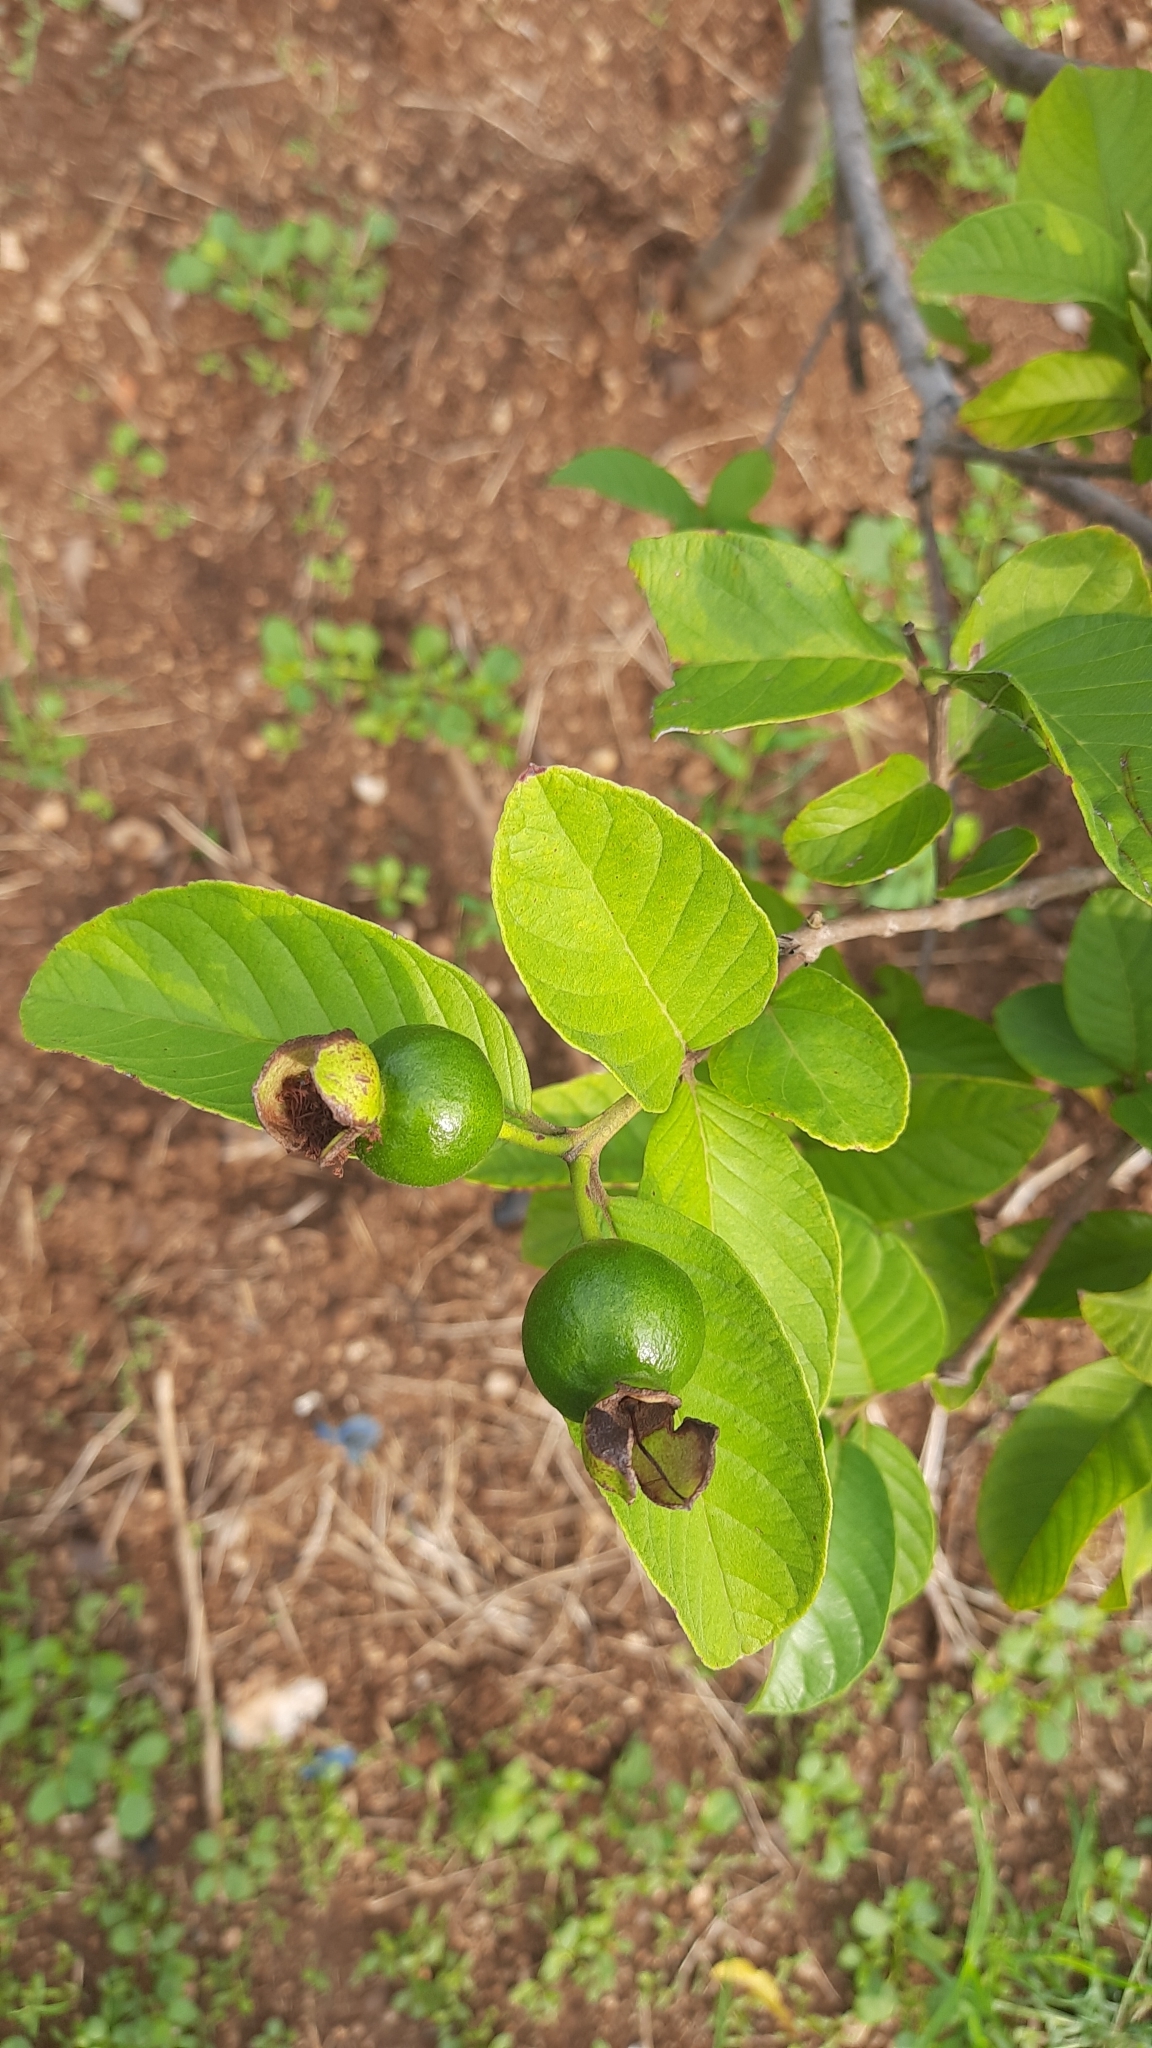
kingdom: Plantae
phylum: Tracheophyta
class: Magnoliopsida
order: Myrtales
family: Myrtaceae
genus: Psidium
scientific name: Psidium guajava
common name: Guava
